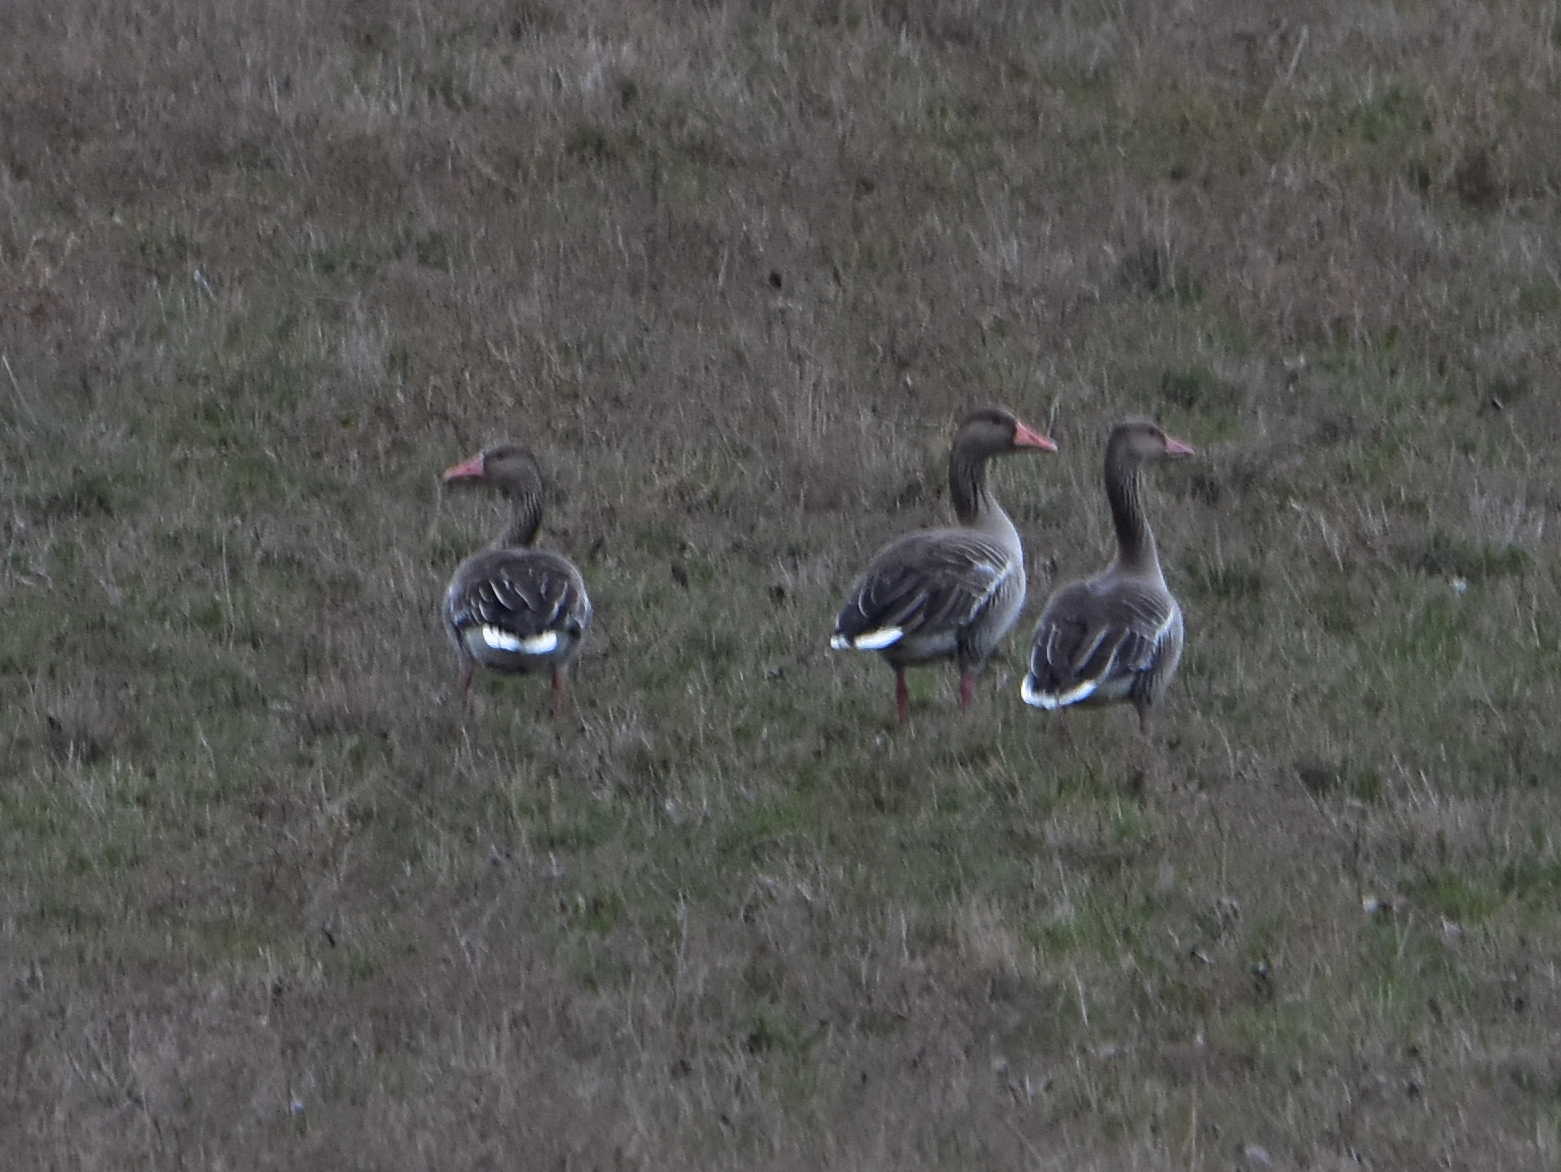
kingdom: Animalia
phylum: Chordata
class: Aves
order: Anseriformes
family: Anatidae
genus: Anser
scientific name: Anser anser
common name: Greylag goose
